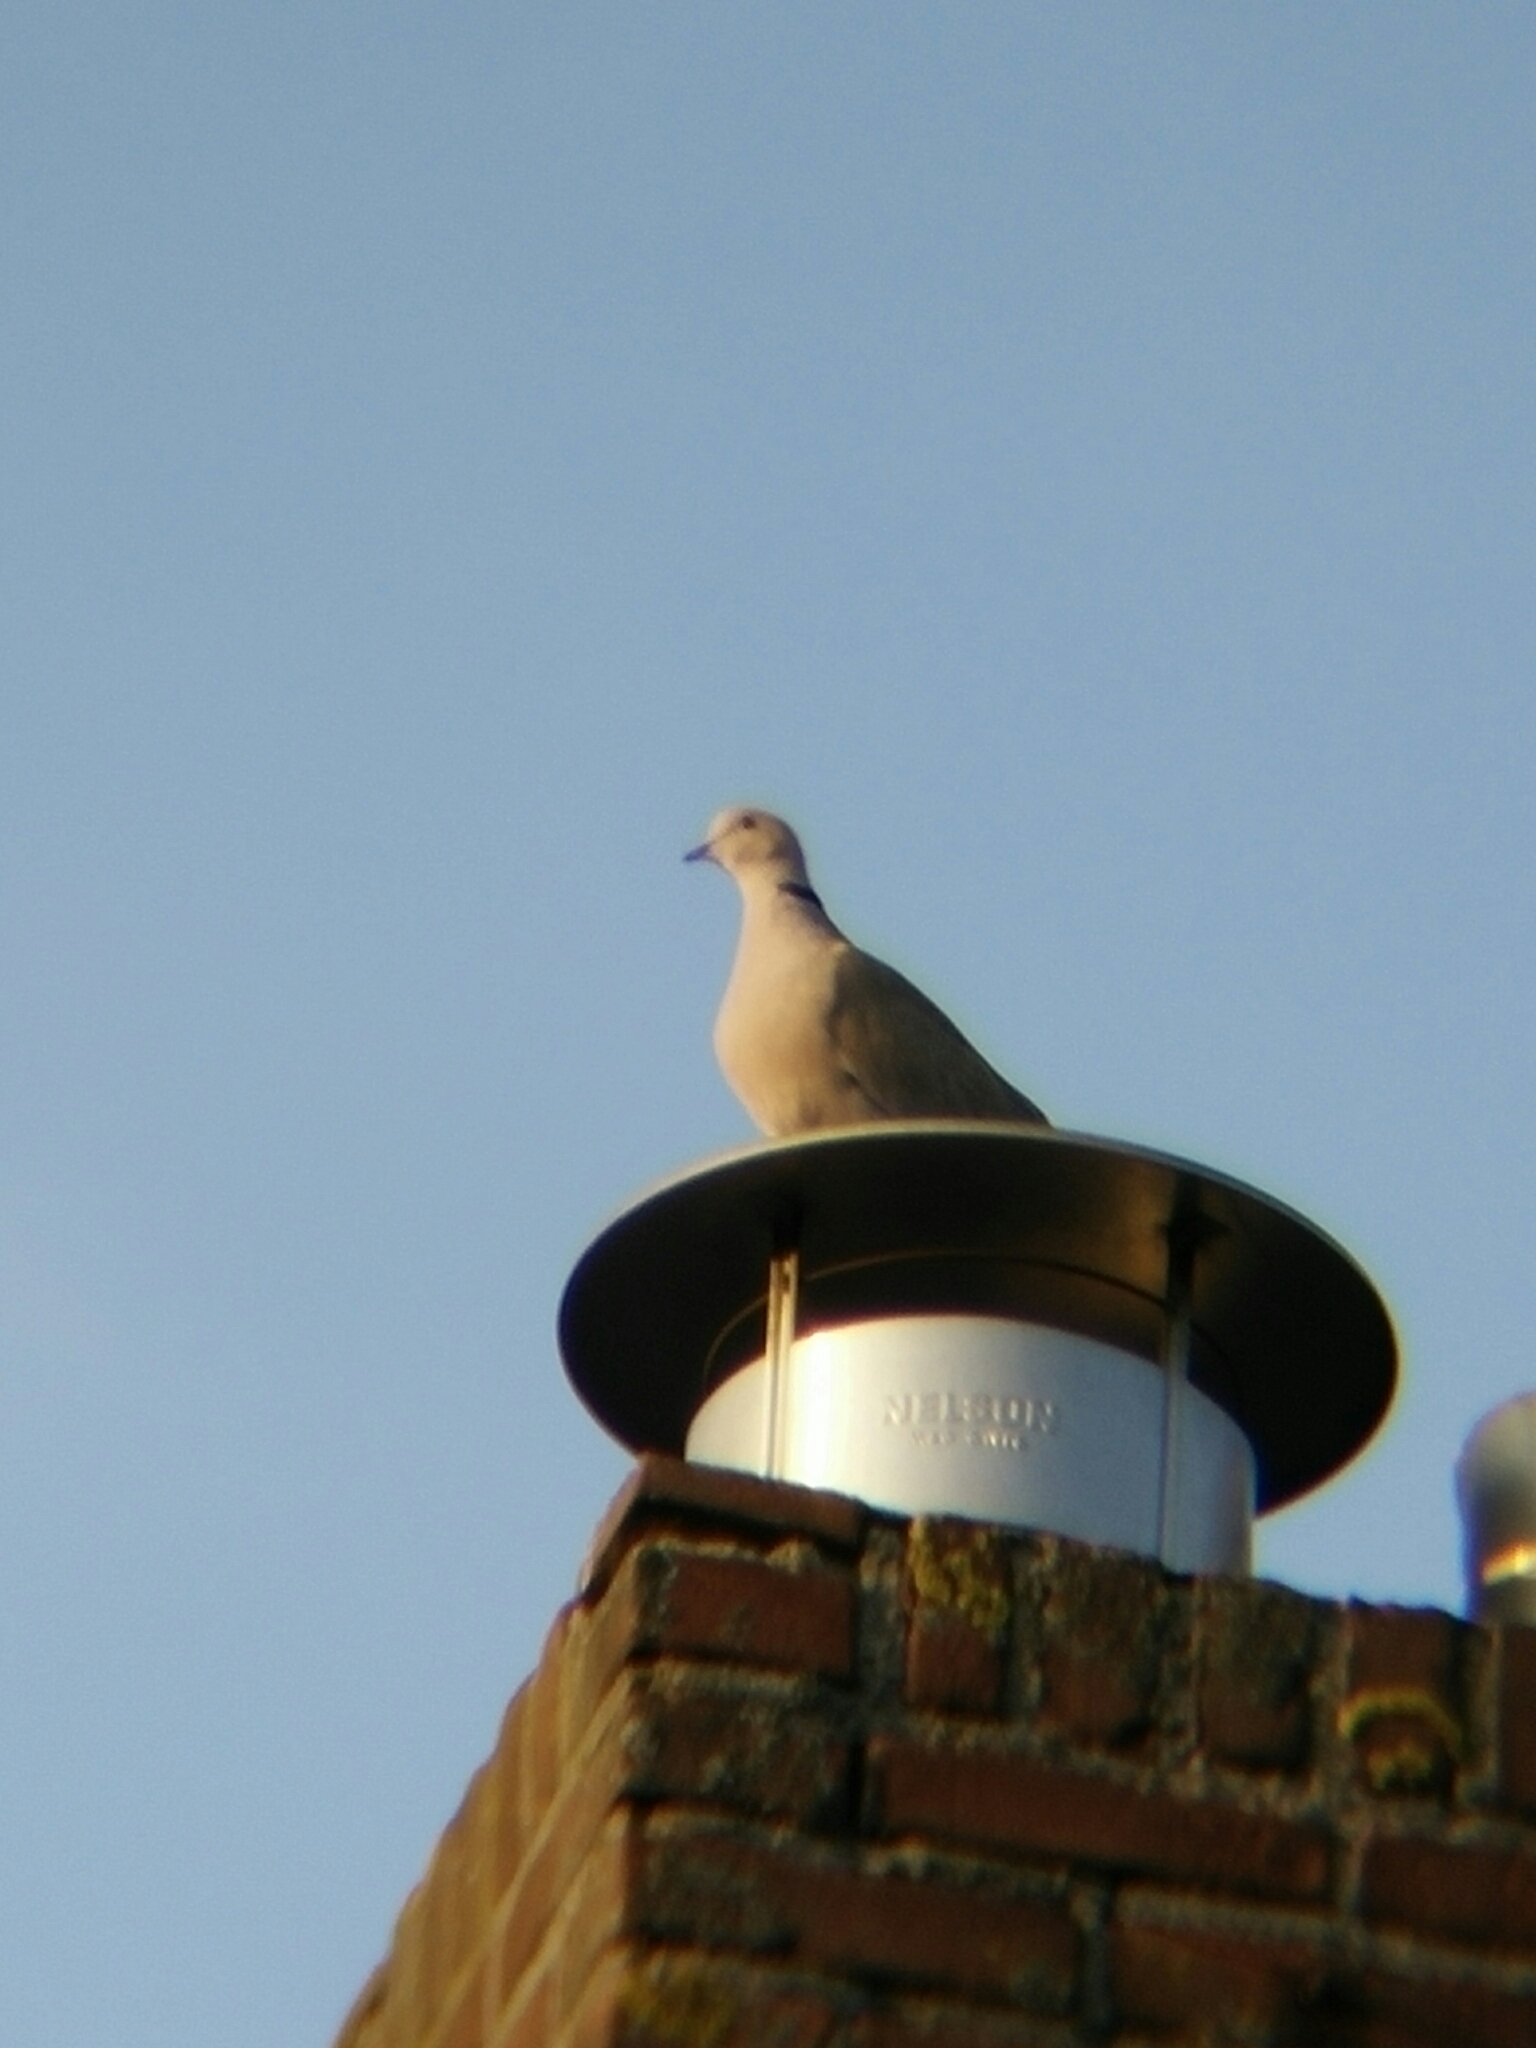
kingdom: Animalia
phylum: Chordata
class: Aves
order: Columbiformes
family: Columbidae
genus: Streptopelia
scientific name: Streptopelia decaocto
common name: Eurasian collared dove
